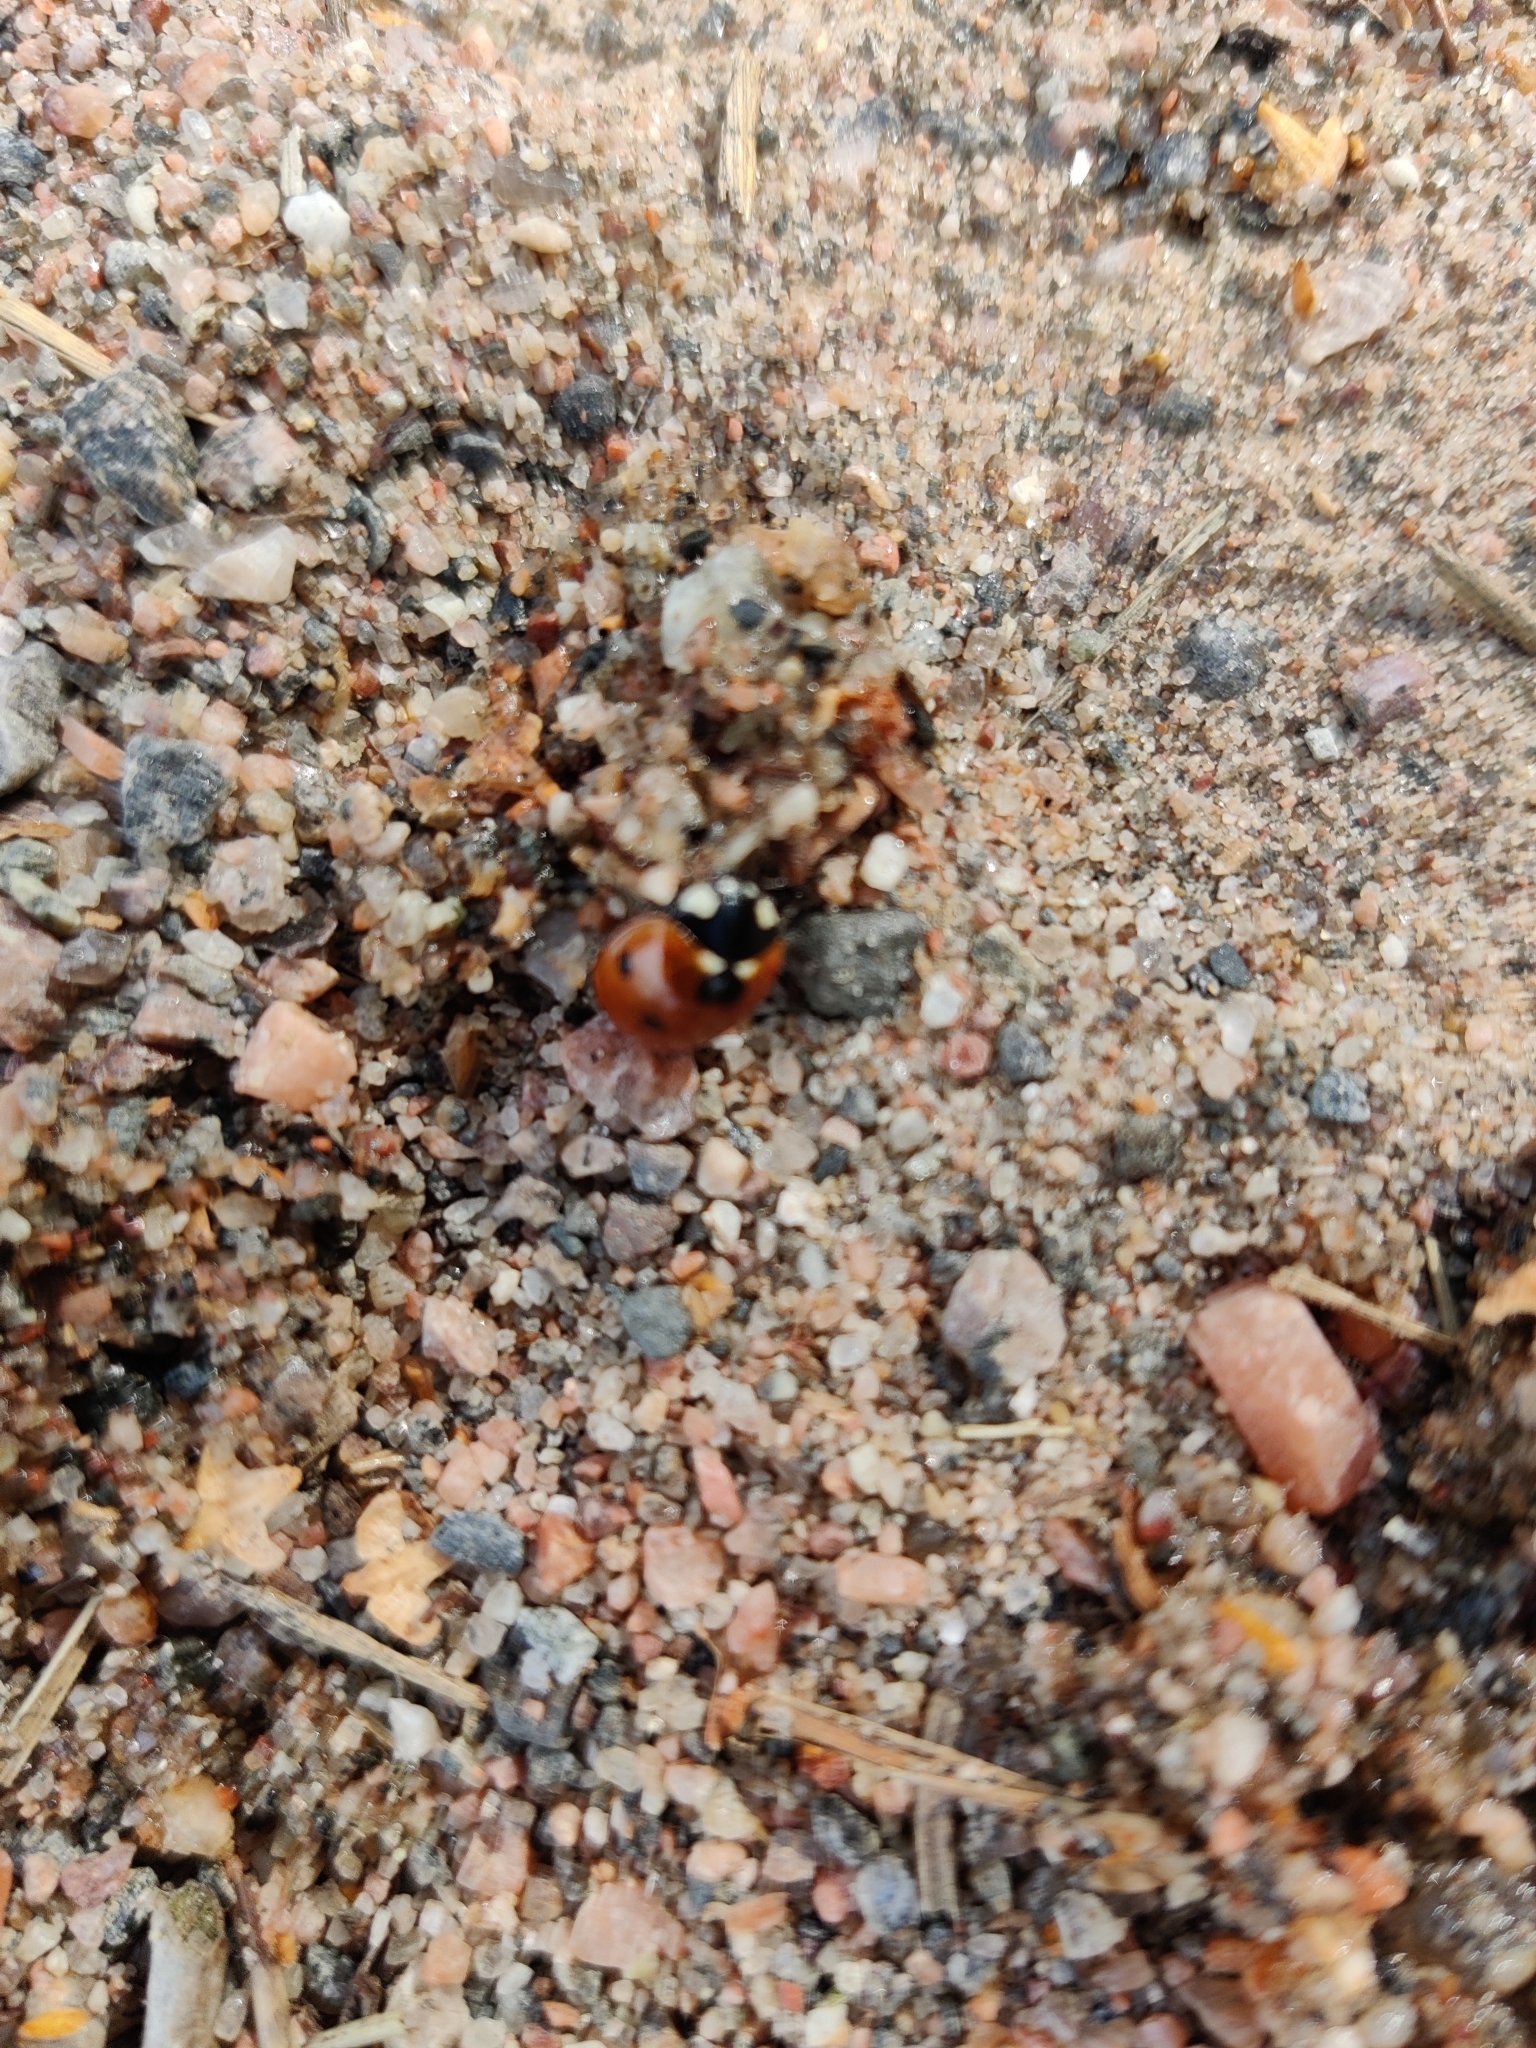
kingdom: Animalia
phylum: Arthropoda
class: Insecta
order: Coleoptera
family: Coccinellidae
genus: Coccinella
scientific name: Coccinella septempunctata
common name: Sevenspotted lady beetle
